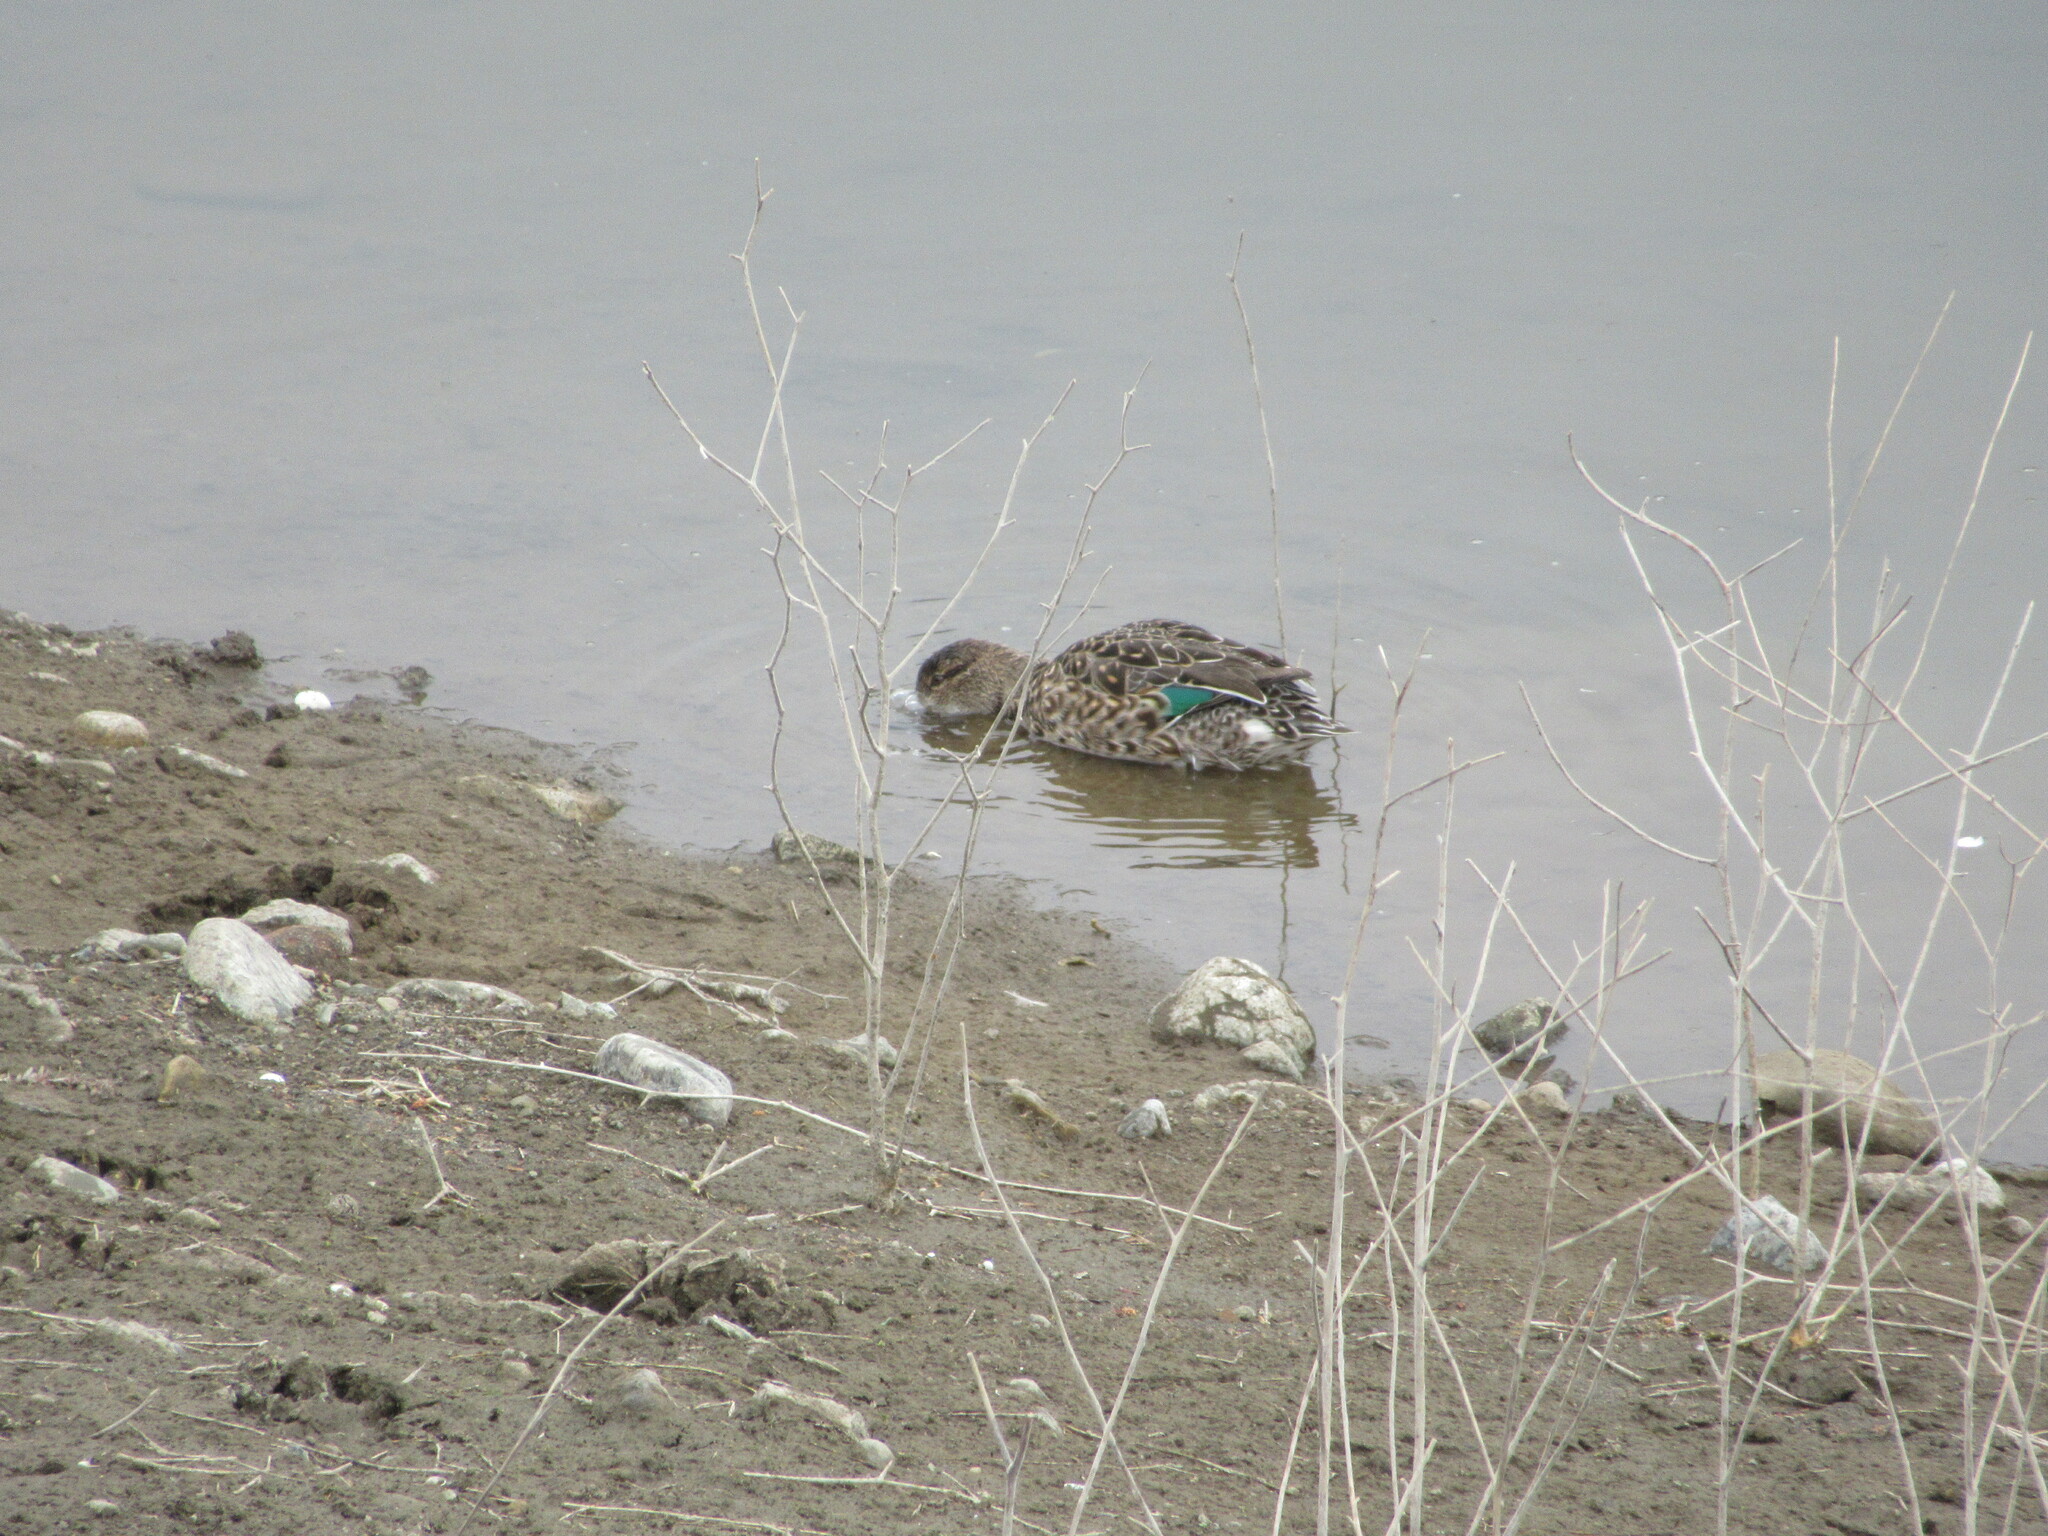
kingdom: Animalia
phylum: Chordata
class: Aves
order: Anseriformes
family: Anatidae
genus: Anas
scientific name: Anas crecca
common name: Eurasian teal
